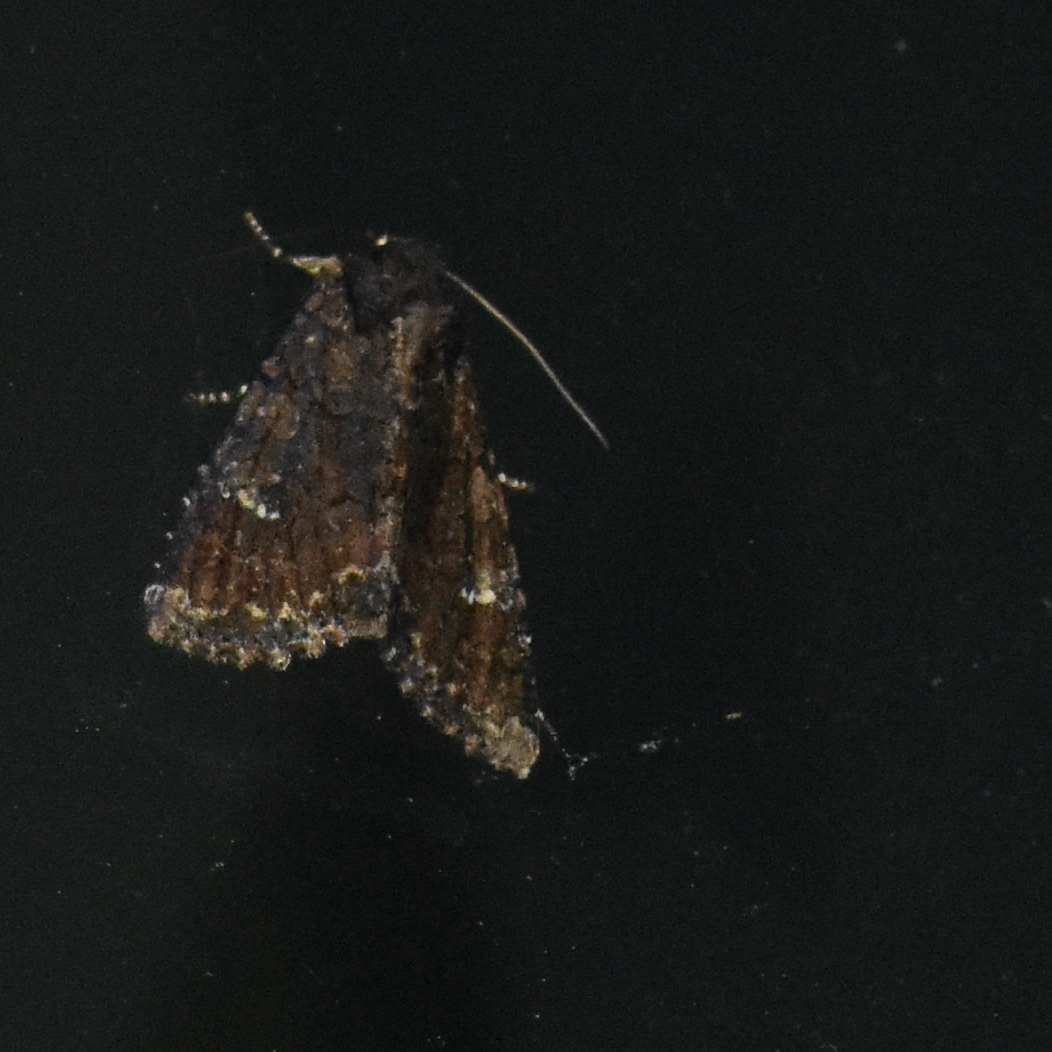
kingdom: Animalia
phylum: Arthropoda
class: Insecta
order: Lepidoptera
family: Noctuidae
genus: Apamea
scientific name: Apamea amputatrix
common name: Yellow-headed cutworm moth
